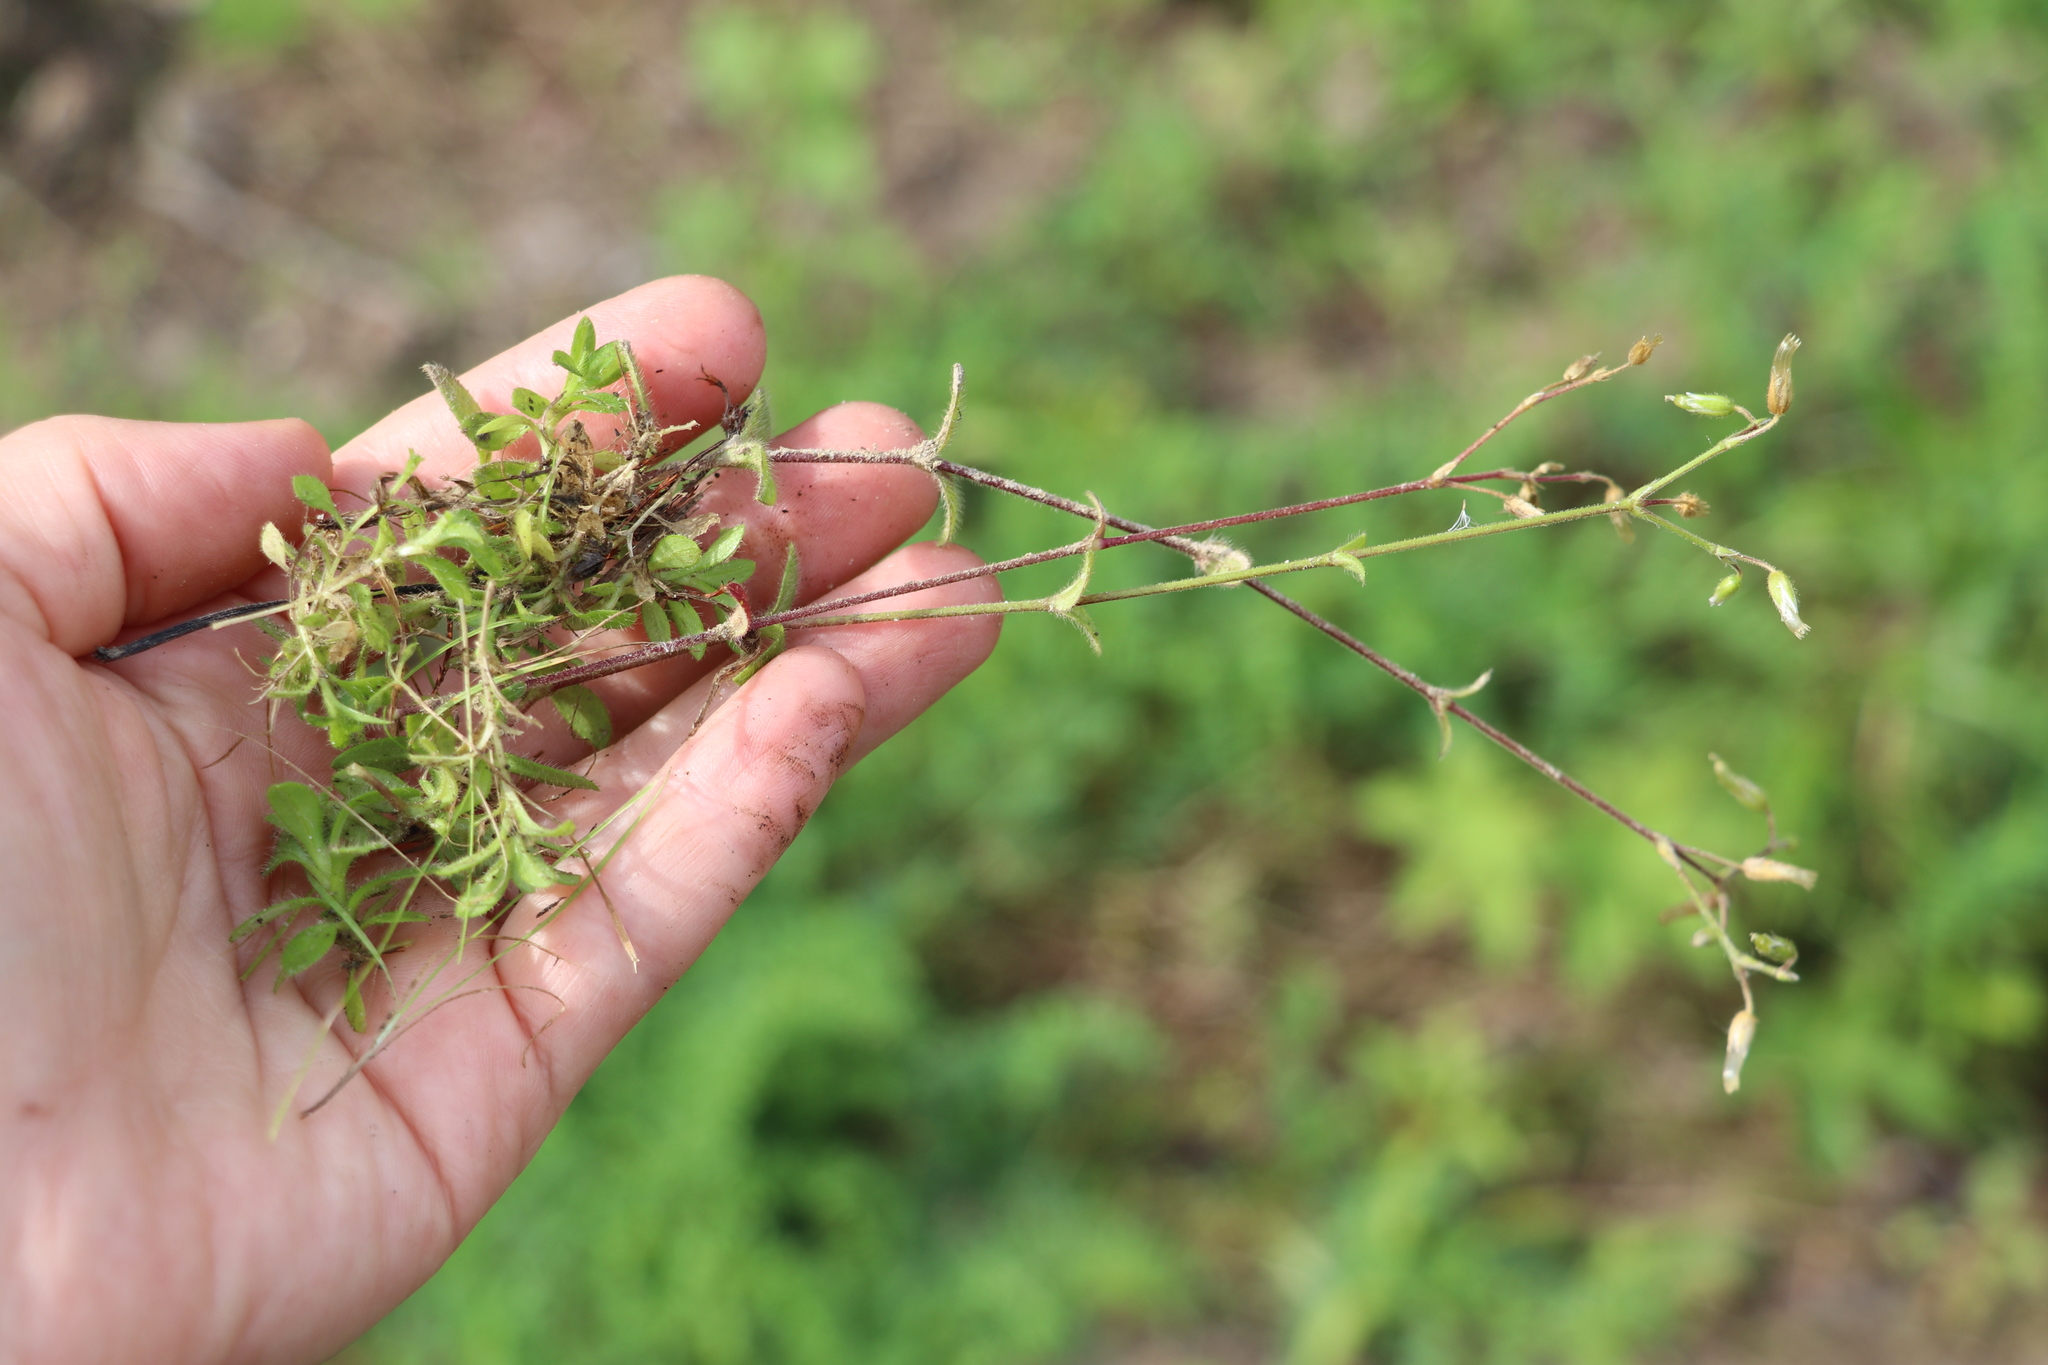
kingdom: Plantae
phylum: Tracheophyta
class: Magnoliopsida
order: Caryophyllales
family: Caryophyllaceae
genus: Cerastium
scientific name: Cerastium holosteoides
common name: Big chickweed
